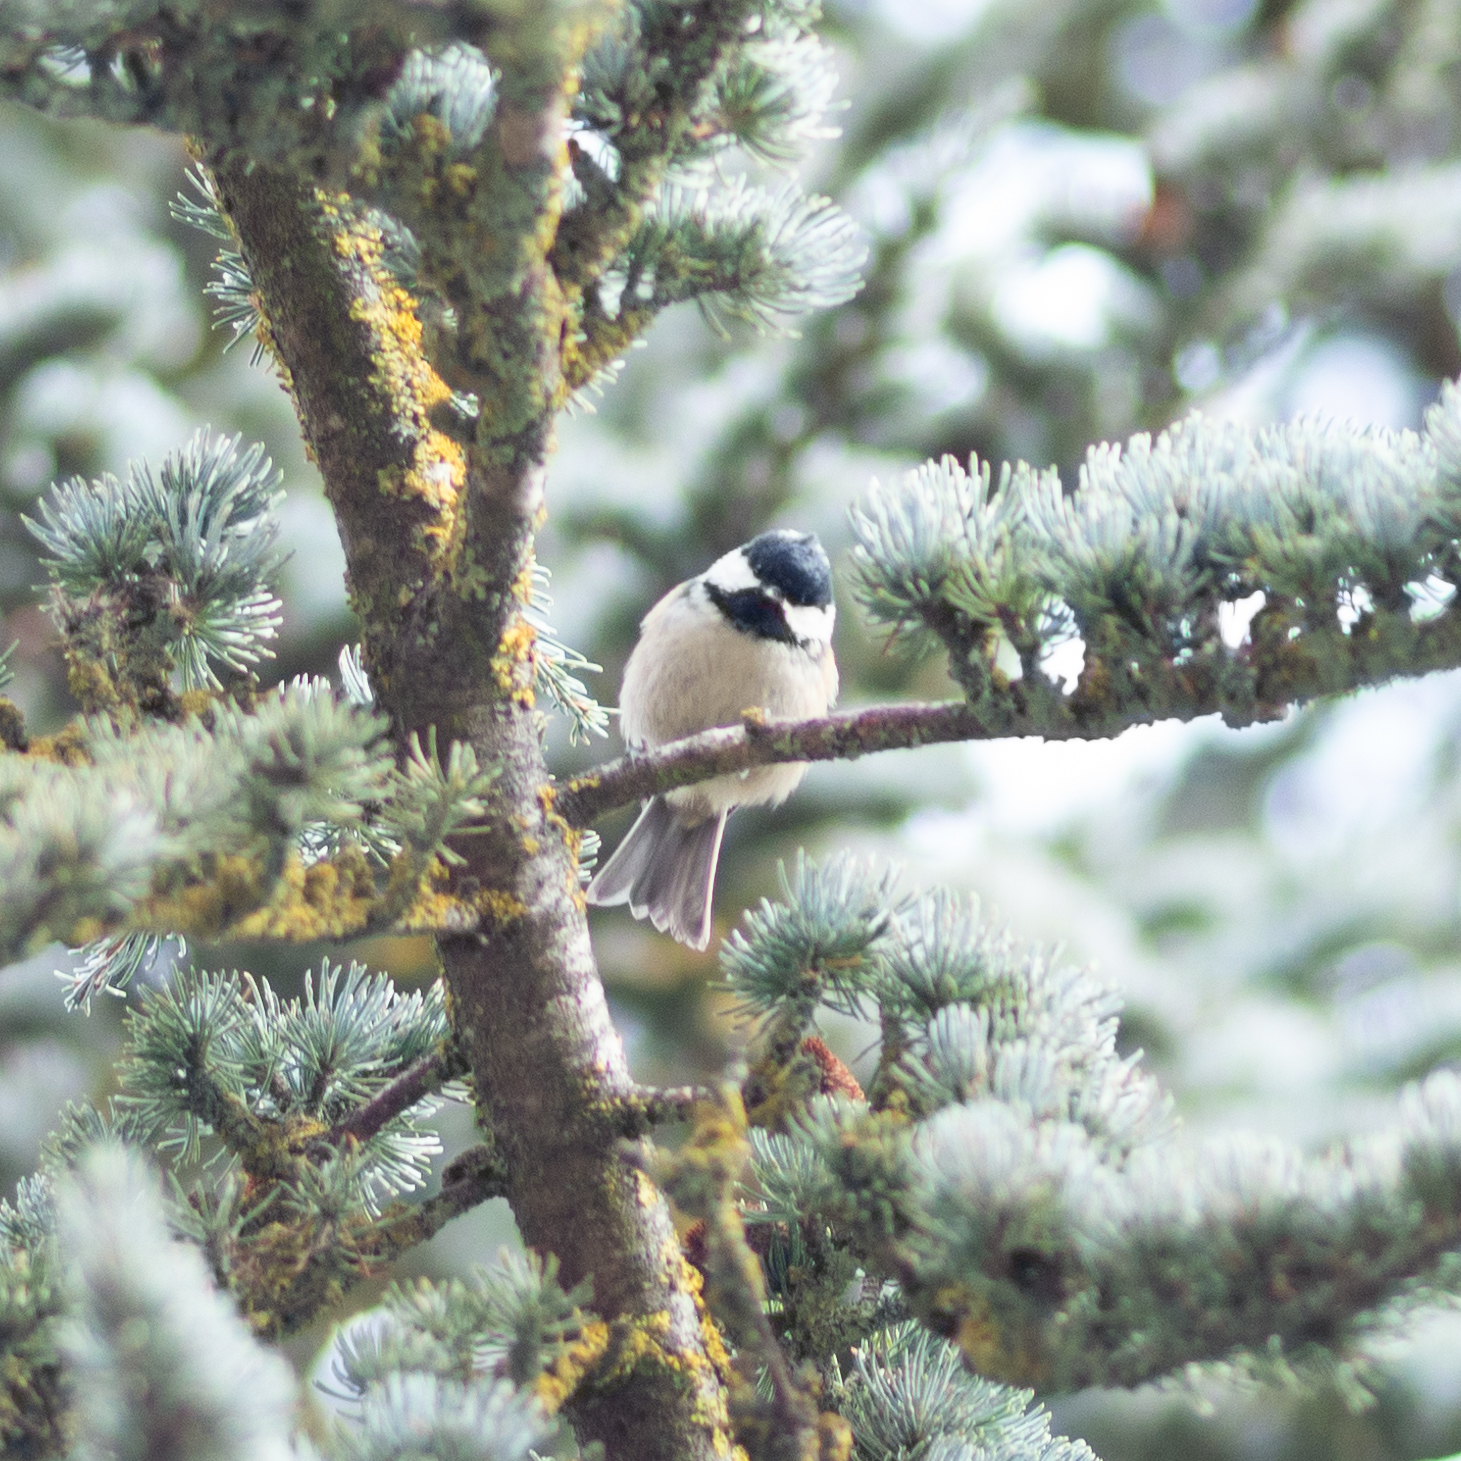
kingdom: Animalia
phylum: Chordata
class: Aves
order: Passeriformes
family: Paridae
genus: Periparus
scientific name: Periparus ater
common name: Coal tit
